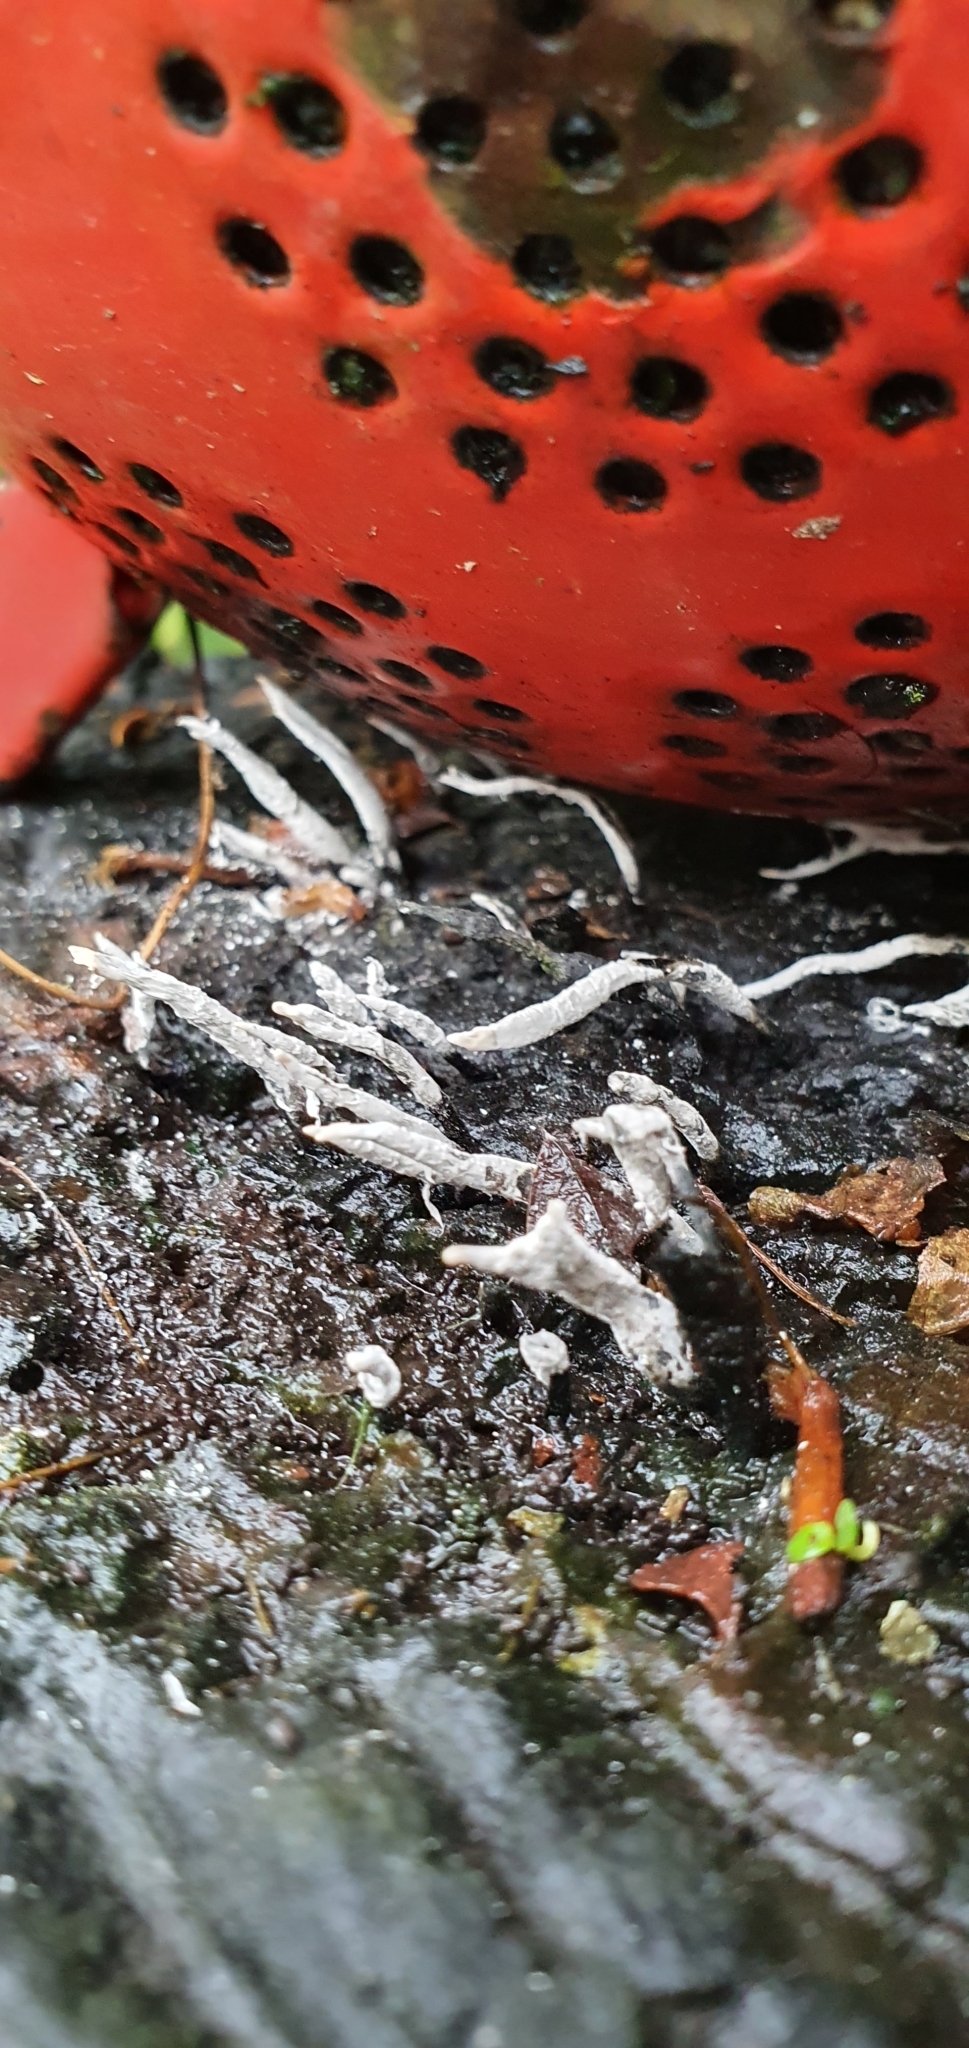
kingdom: Fungi
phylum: Ascomycota
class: Sordariomycetes
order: Xylariales
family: Xylariaceae
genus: Xylaria
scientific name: Xylaria hypoxylon
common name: Candle-snuff fungus
